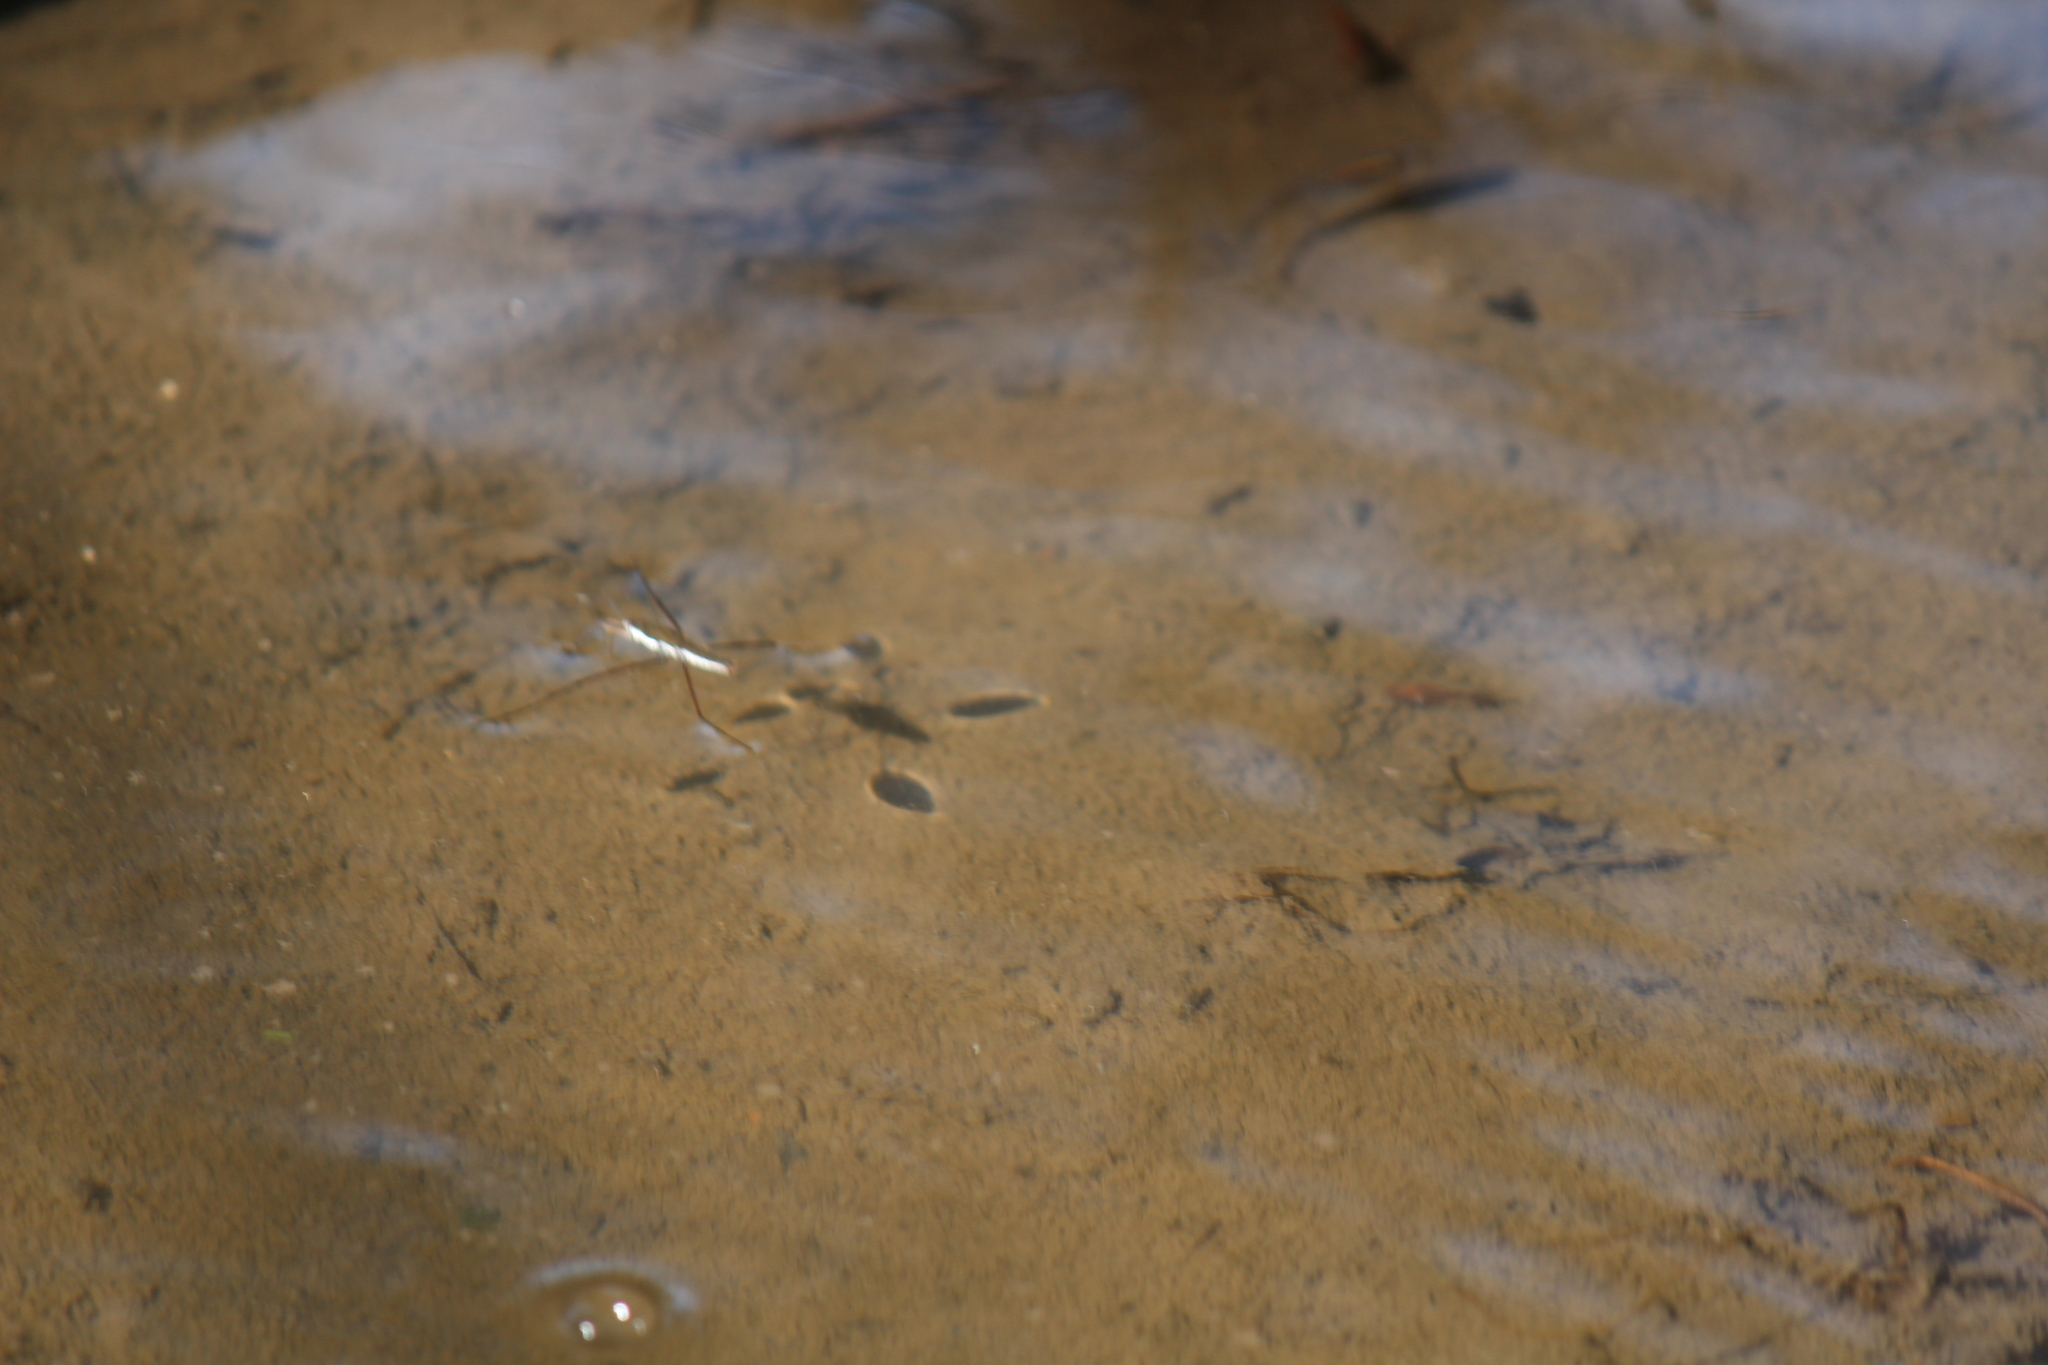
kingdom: Animalia
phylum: Arthropoda
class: Insecta
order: Hemiptera
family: Gerridae
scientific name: Gerridae
